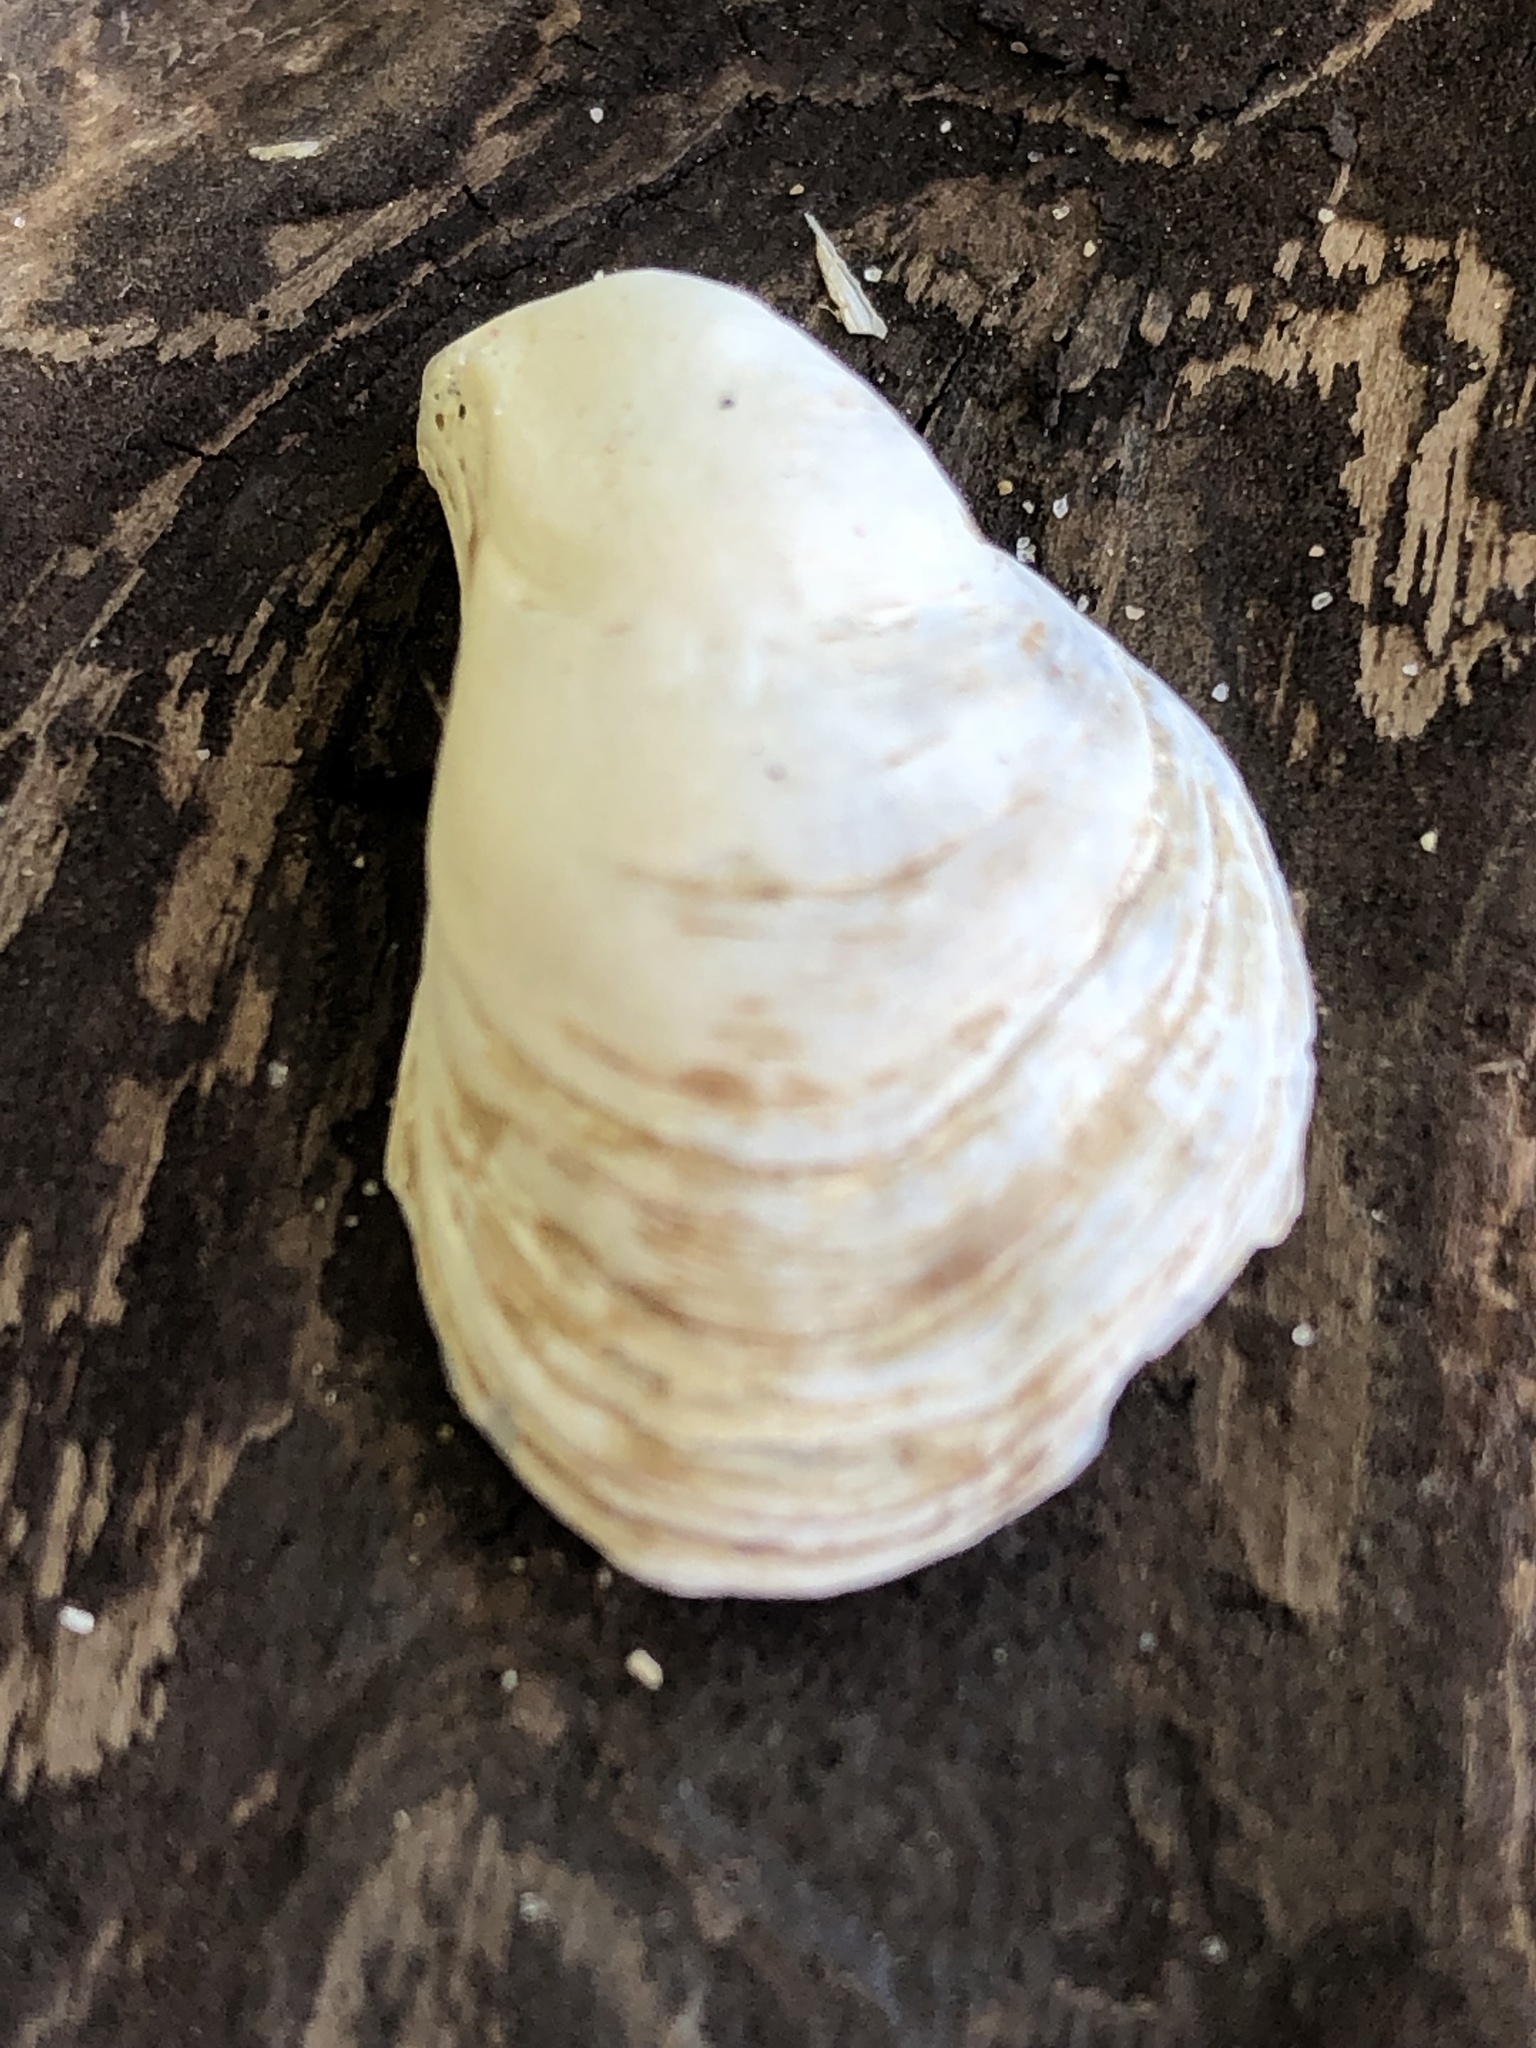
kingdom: Animalia
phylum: Mollusca
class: Bivalvia
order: Myida
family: Dreissenidae
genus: Dreissena
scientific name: Dreissena bugensis
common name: Quagga mussel
